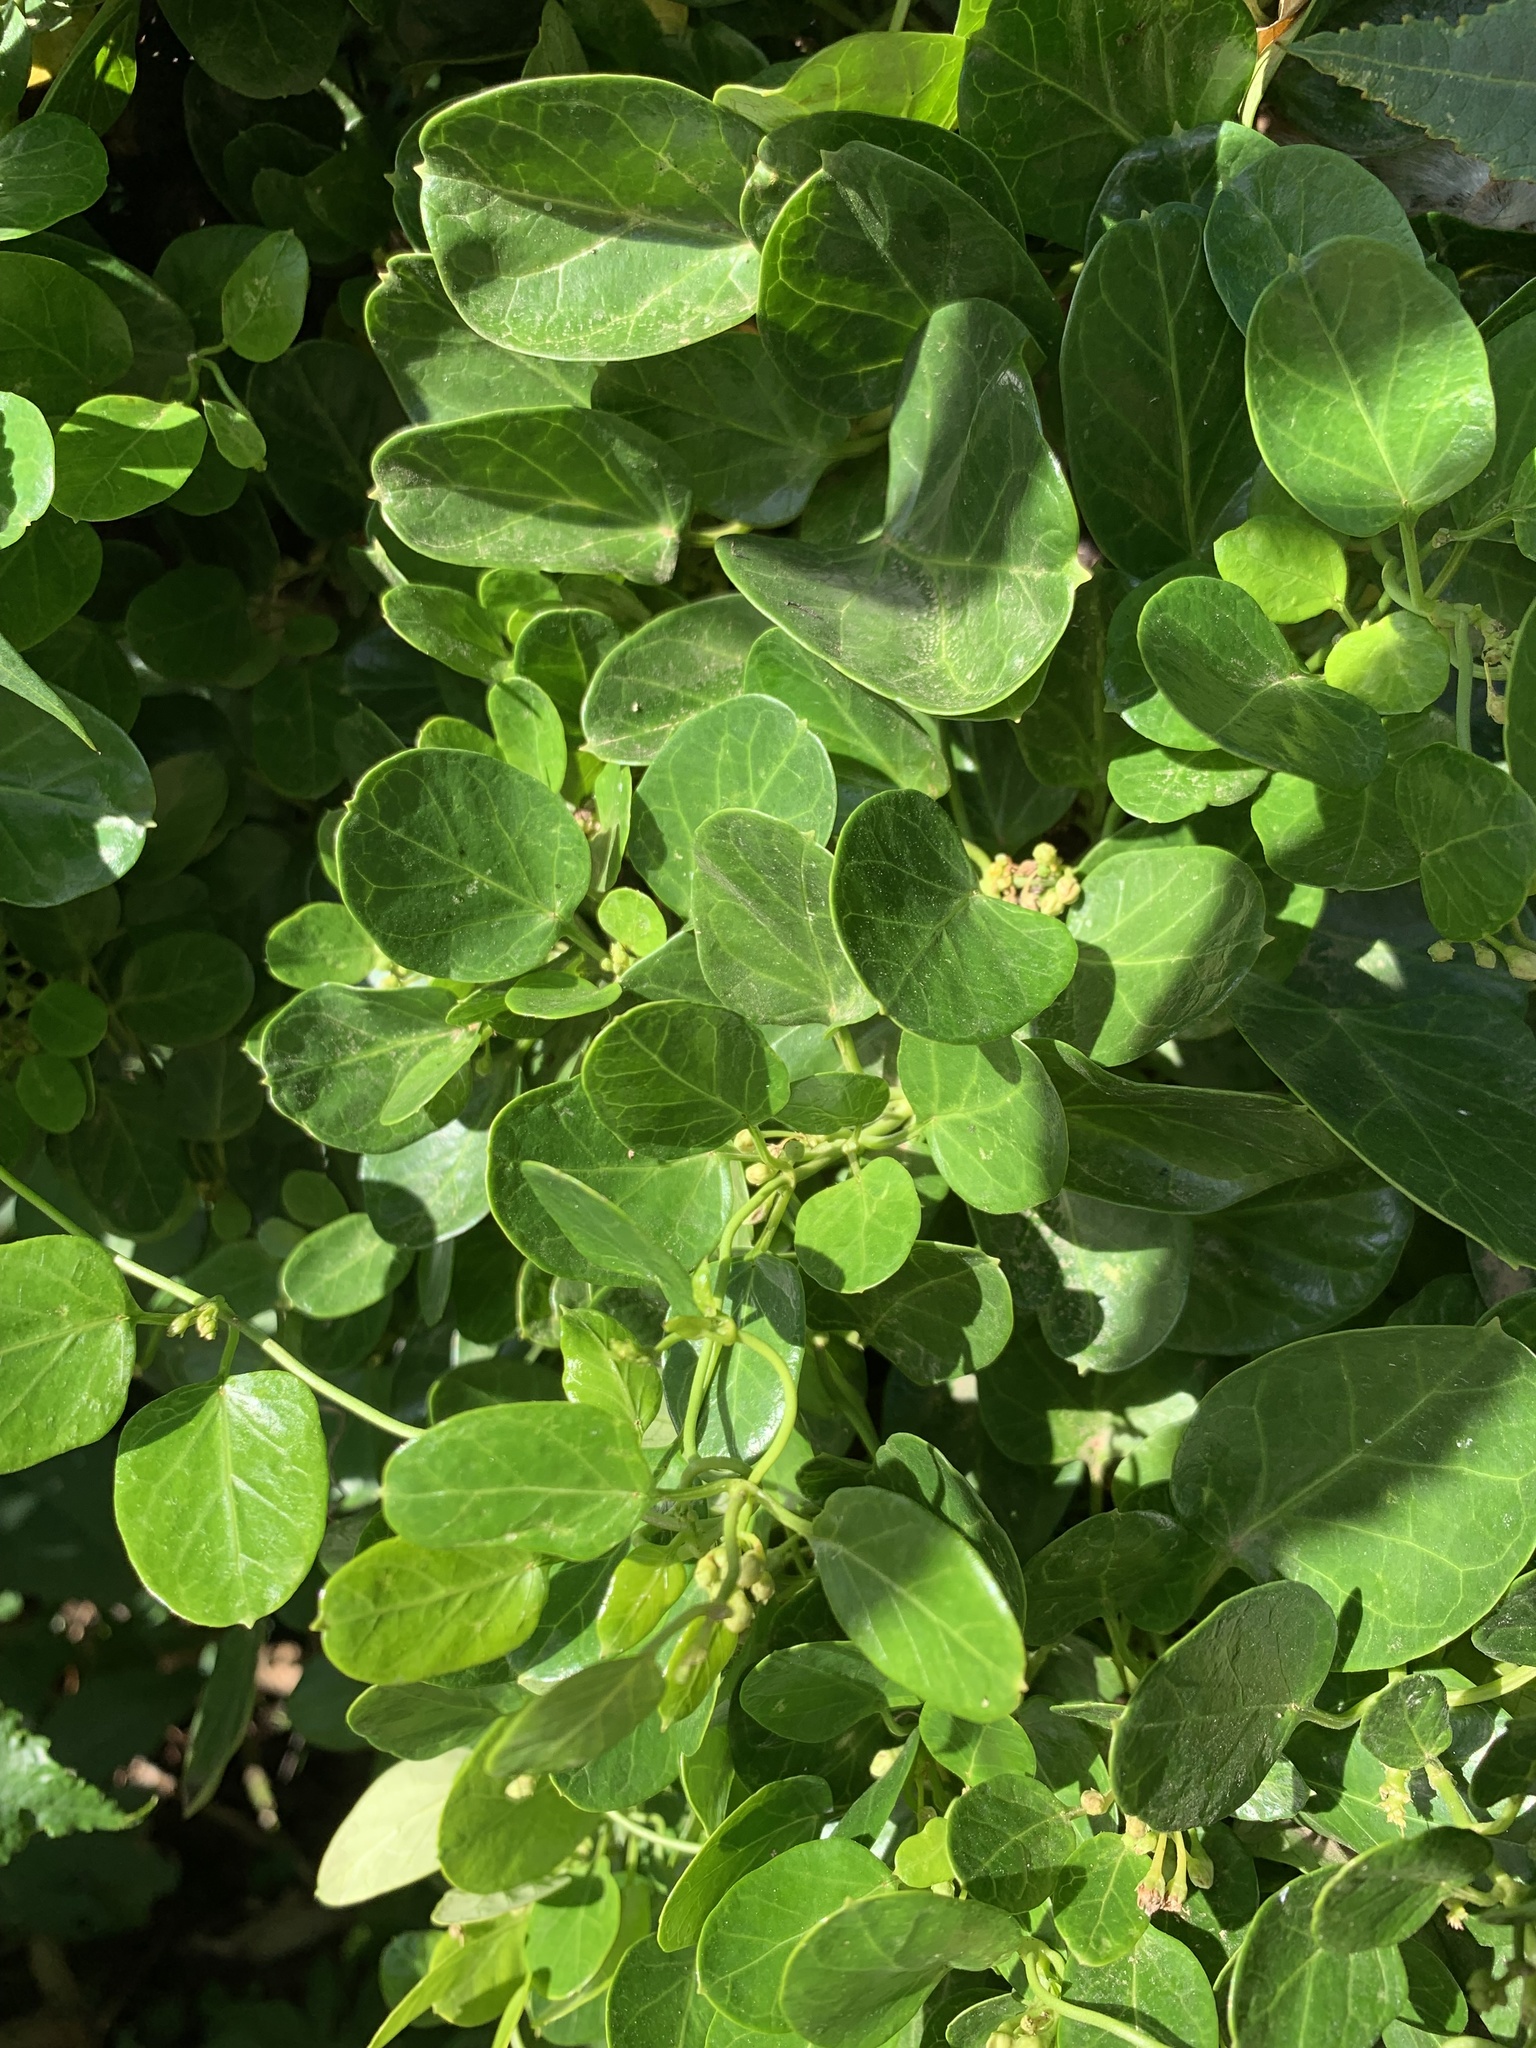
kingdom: Plantae
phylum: Tracheophyta
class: Magnoliopsida
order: Ranunculales
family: Menispermaceae
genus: Cissampelos
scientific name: Cissampelos capensis
